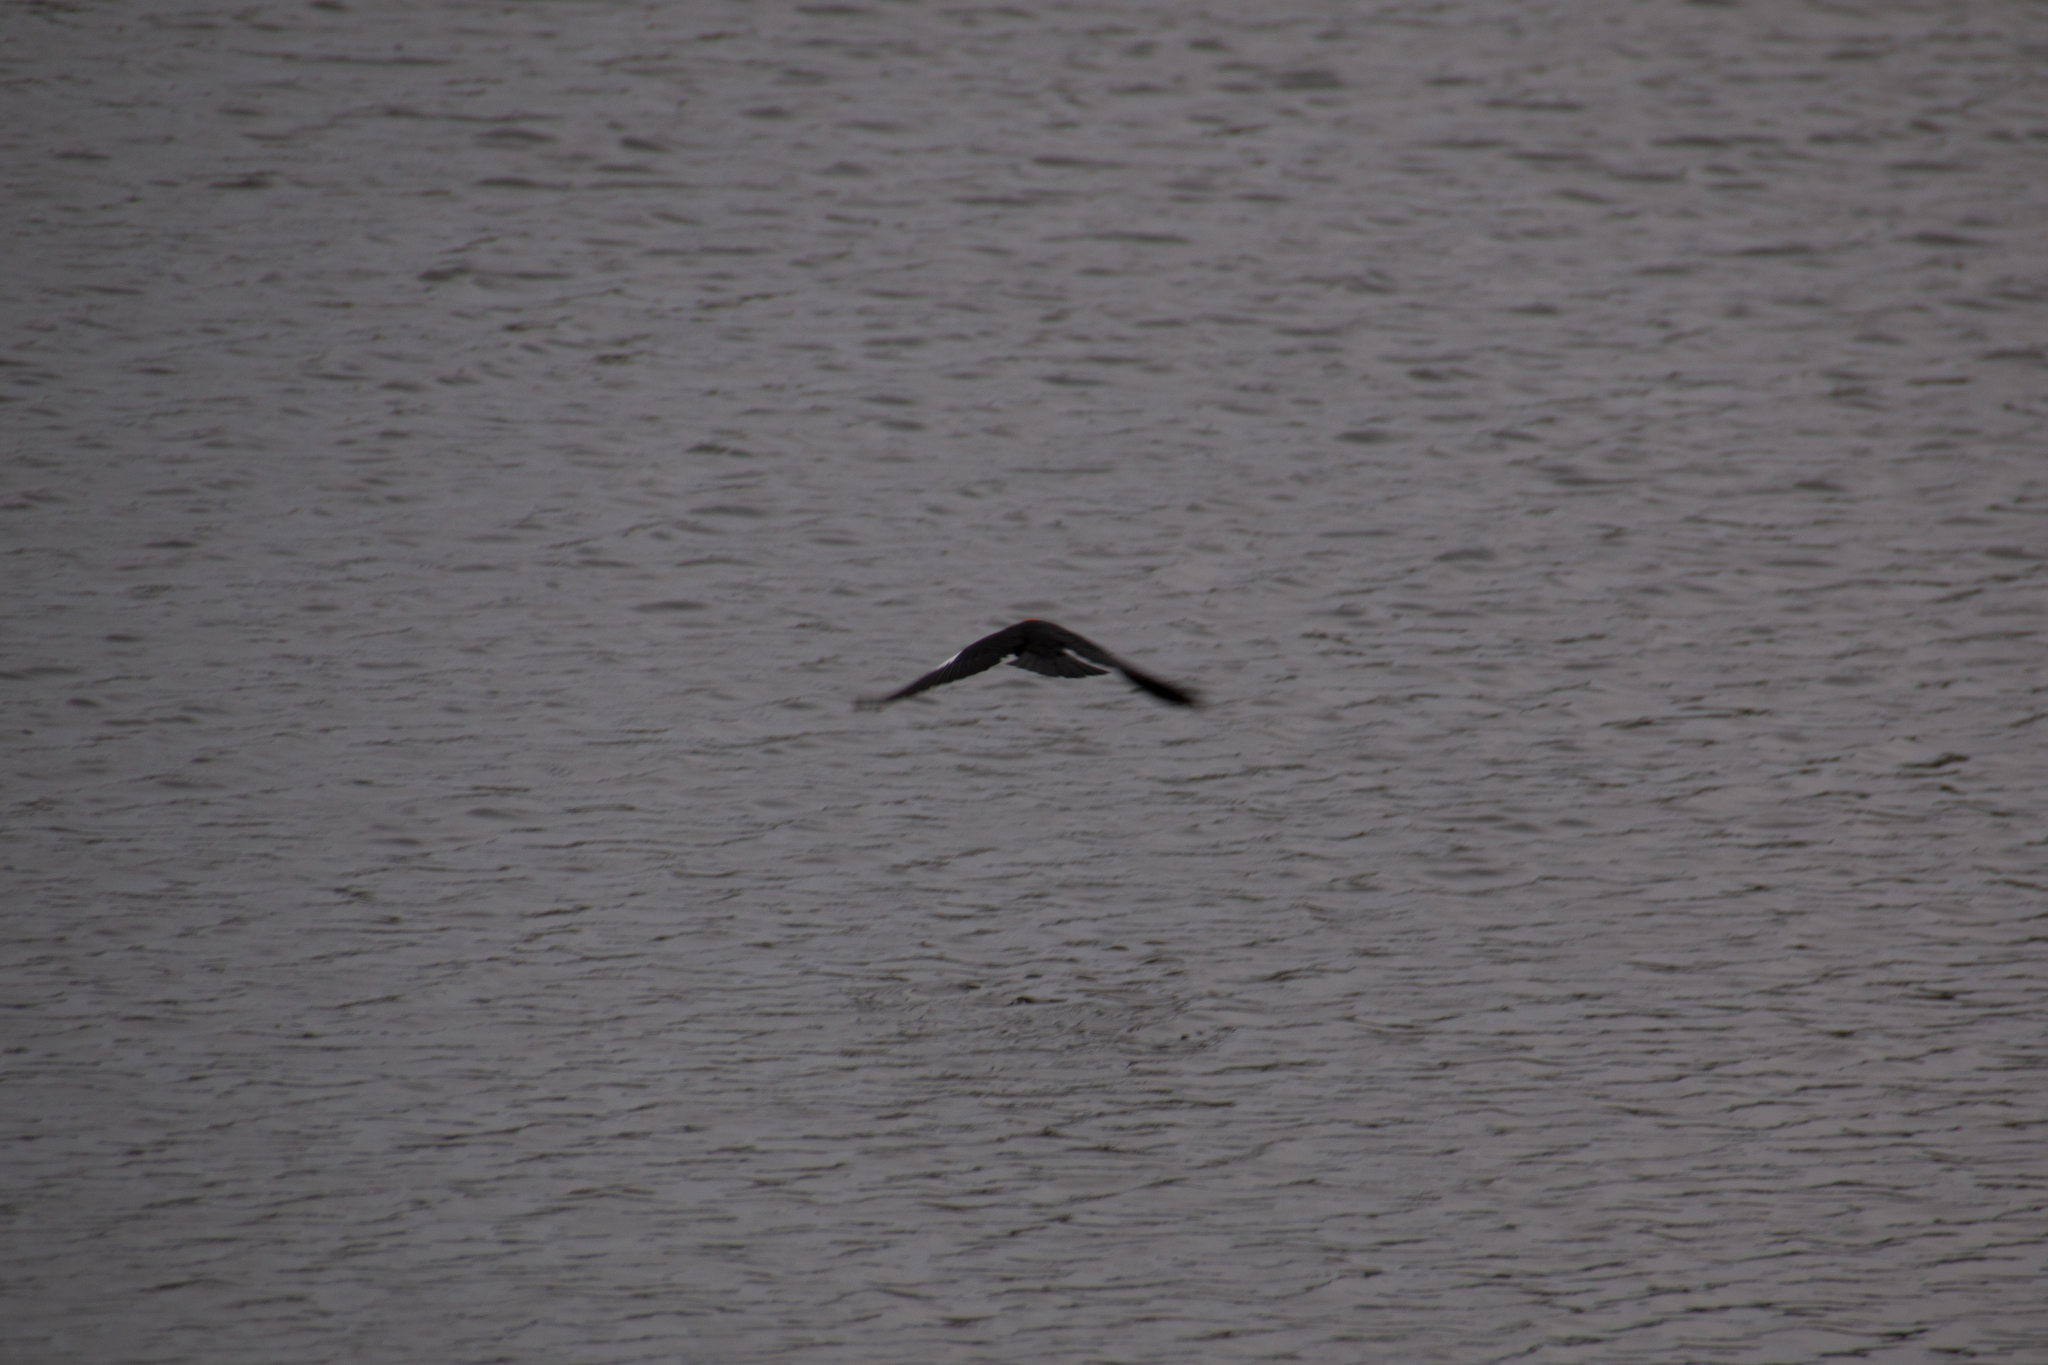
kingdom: Animalia
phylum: Chordata
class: Aves
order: Passeriformes
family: Icteridae
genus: Xanthocephalus
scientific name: Xanthocephalus xanthocephalus
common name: Yellow-headed blackbird
